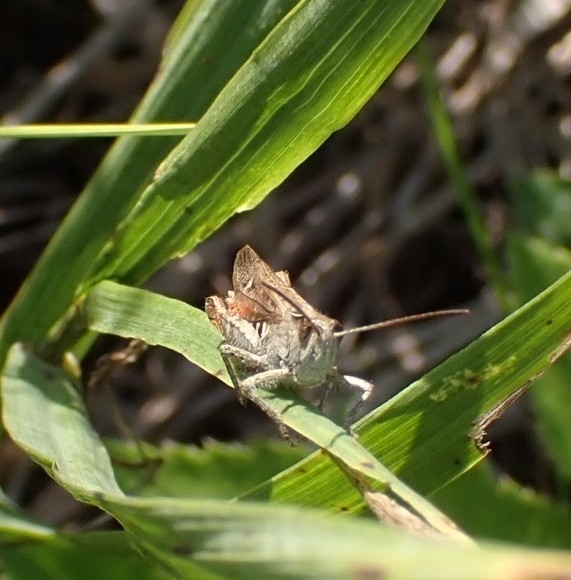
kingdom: Animalia
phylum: Arthropoda
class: Insecta
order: Orthoptera
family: Acrididae
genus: Chorthippus
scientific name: Chorthippus biguttulus
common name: Bow-winged grasshopper
